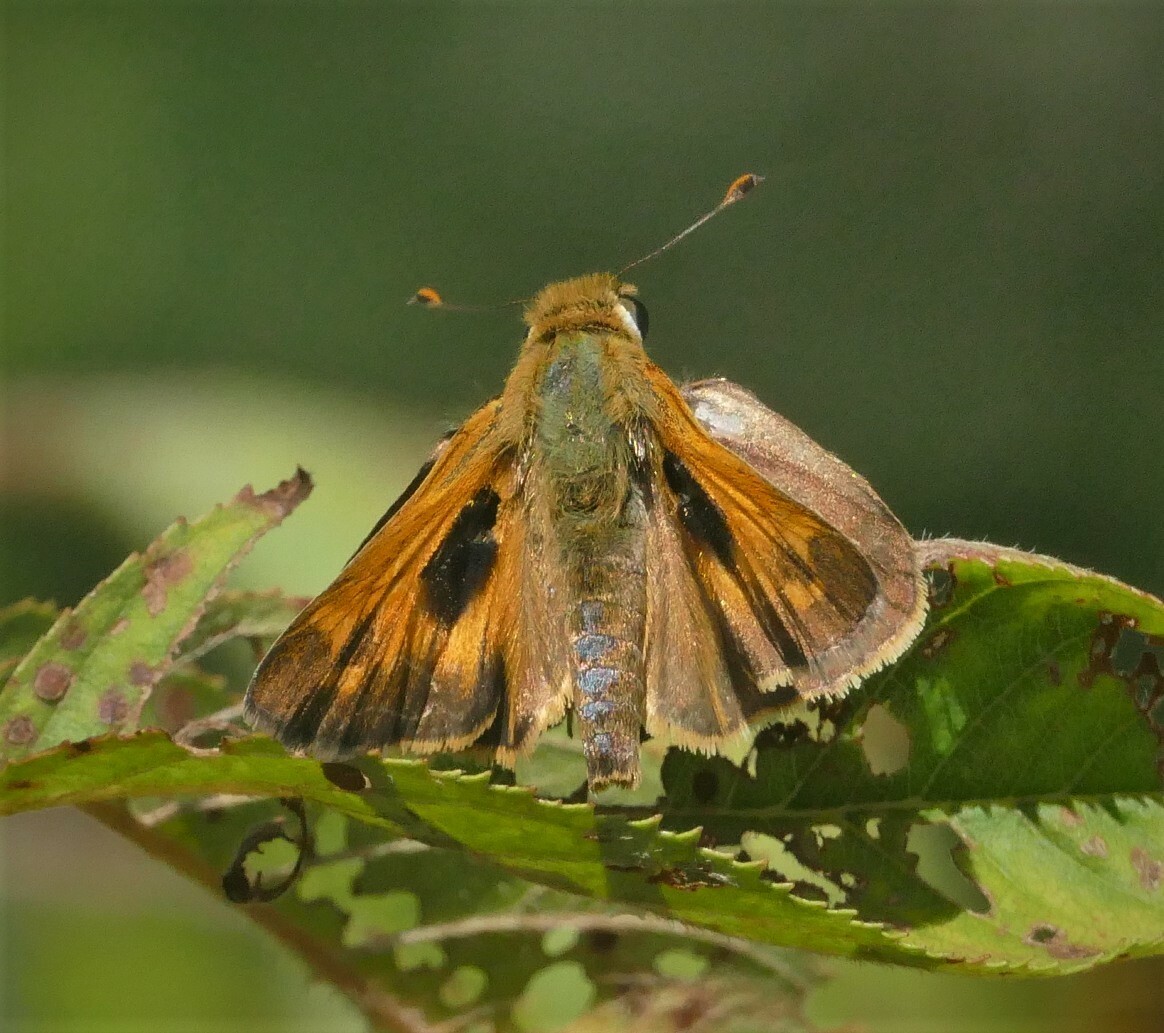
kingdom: Animalia
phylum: Arthropoda
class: Insecta
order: Lepidoptera
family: Hesperiidae
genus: Atalopedes
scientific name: Atalopedes
